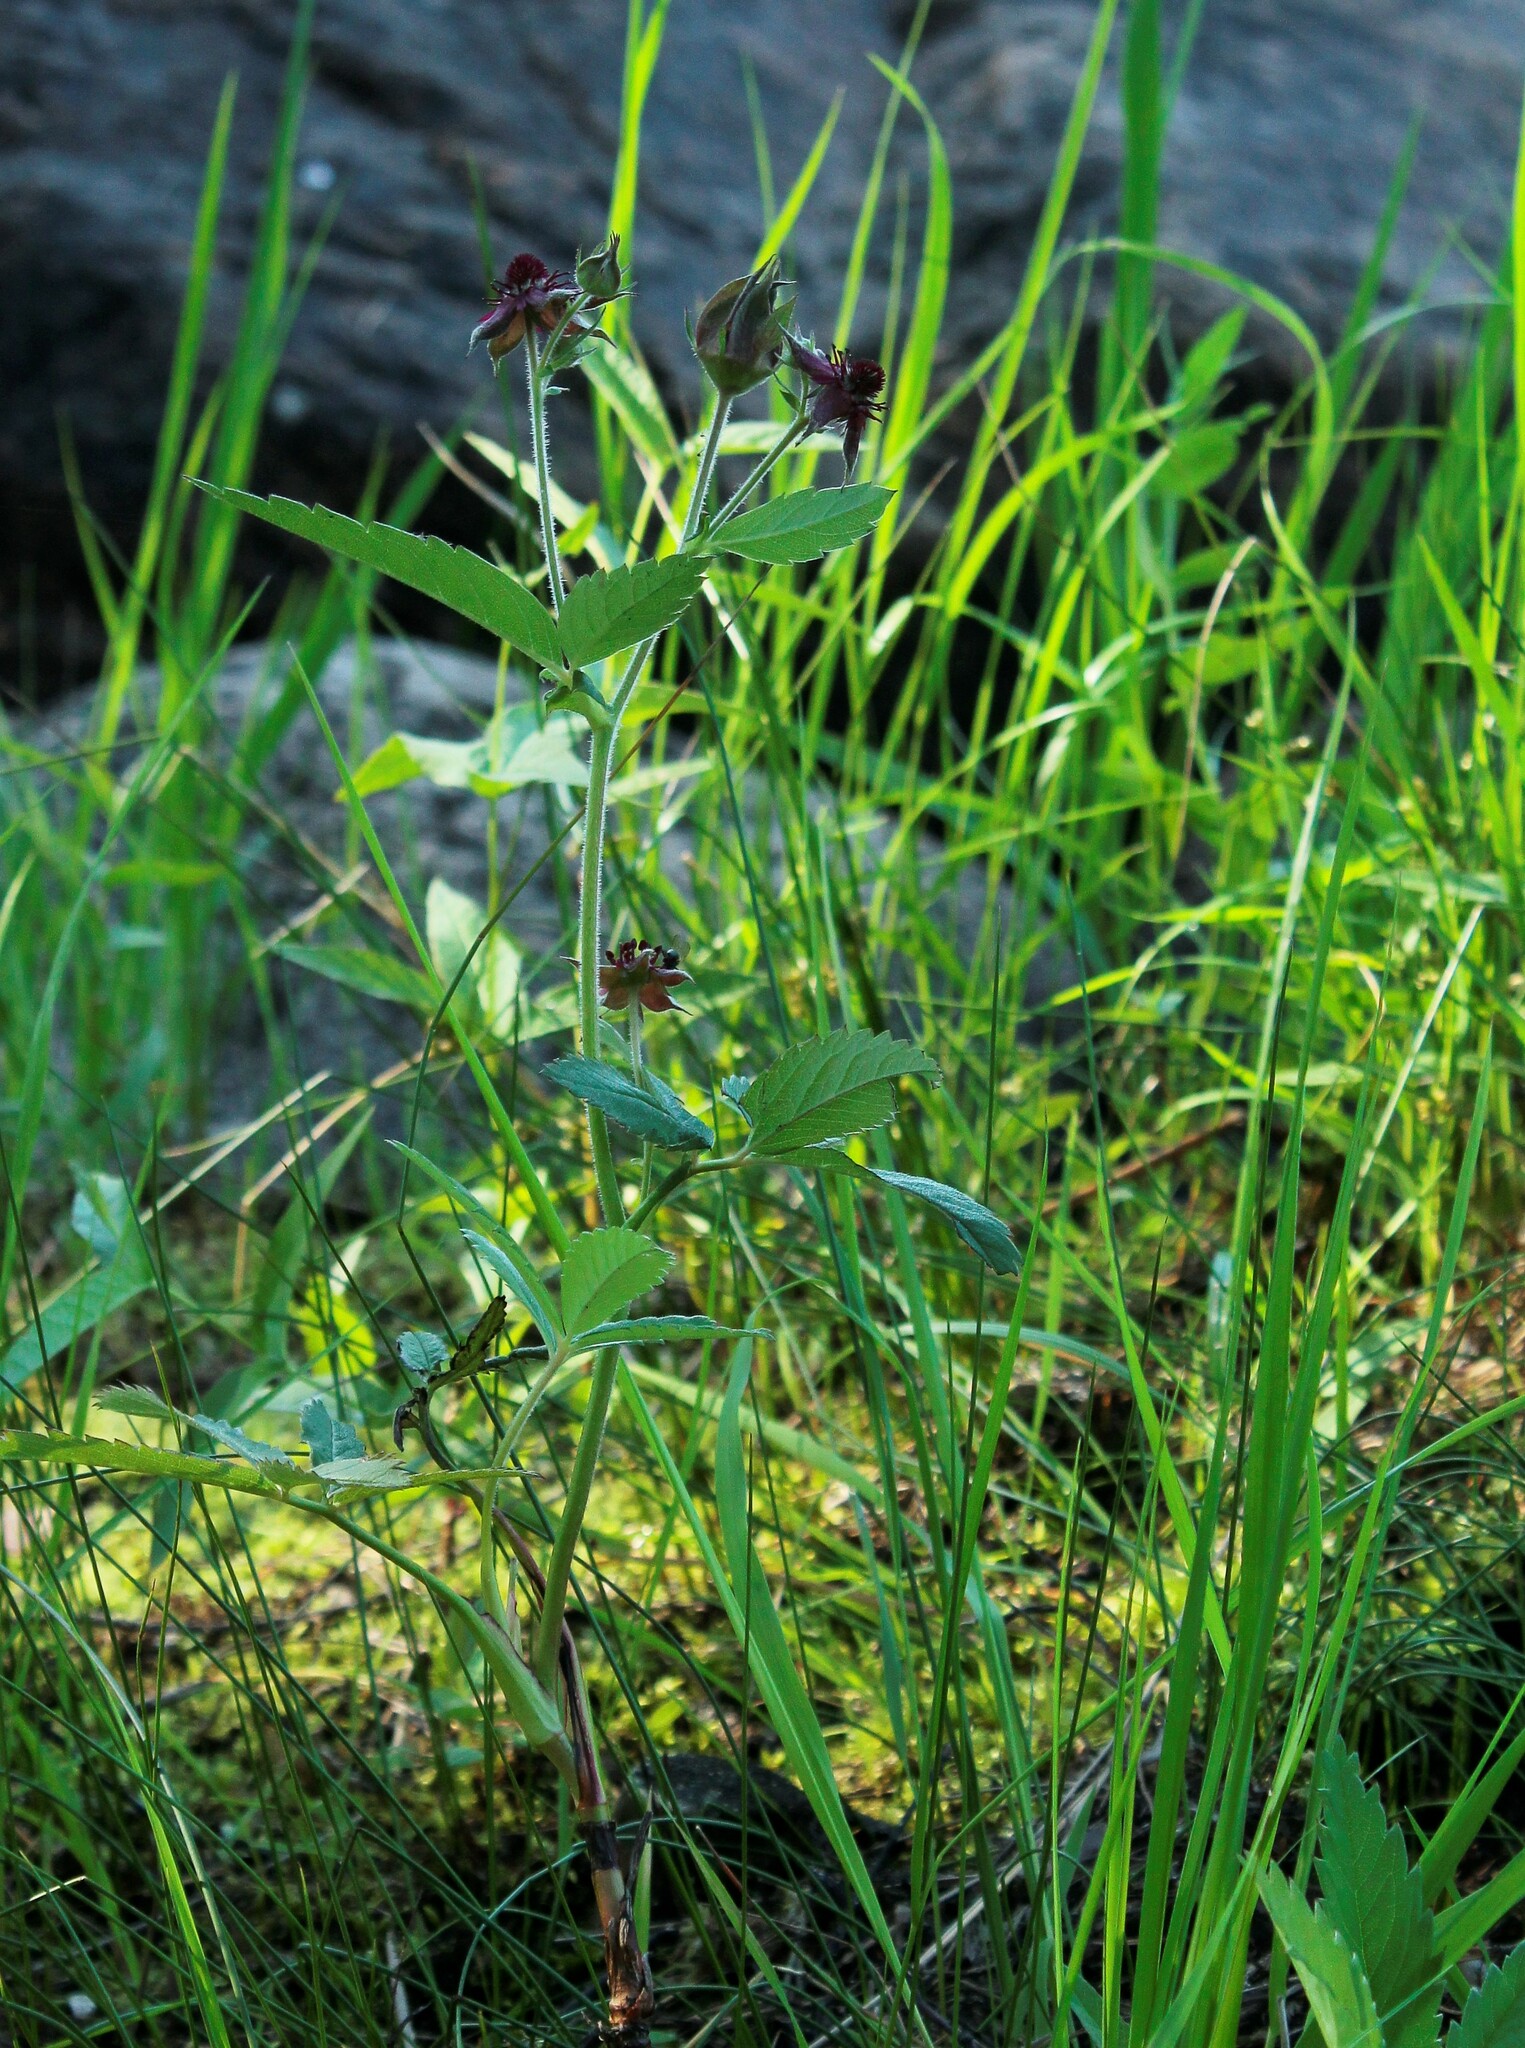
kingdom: Plantae
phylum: Tracheophyta
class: Magnoliopsida
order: Rosales
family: Rosaceae
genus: Comarum
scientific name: Comarum palustre
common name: Marsh cinquefoil
